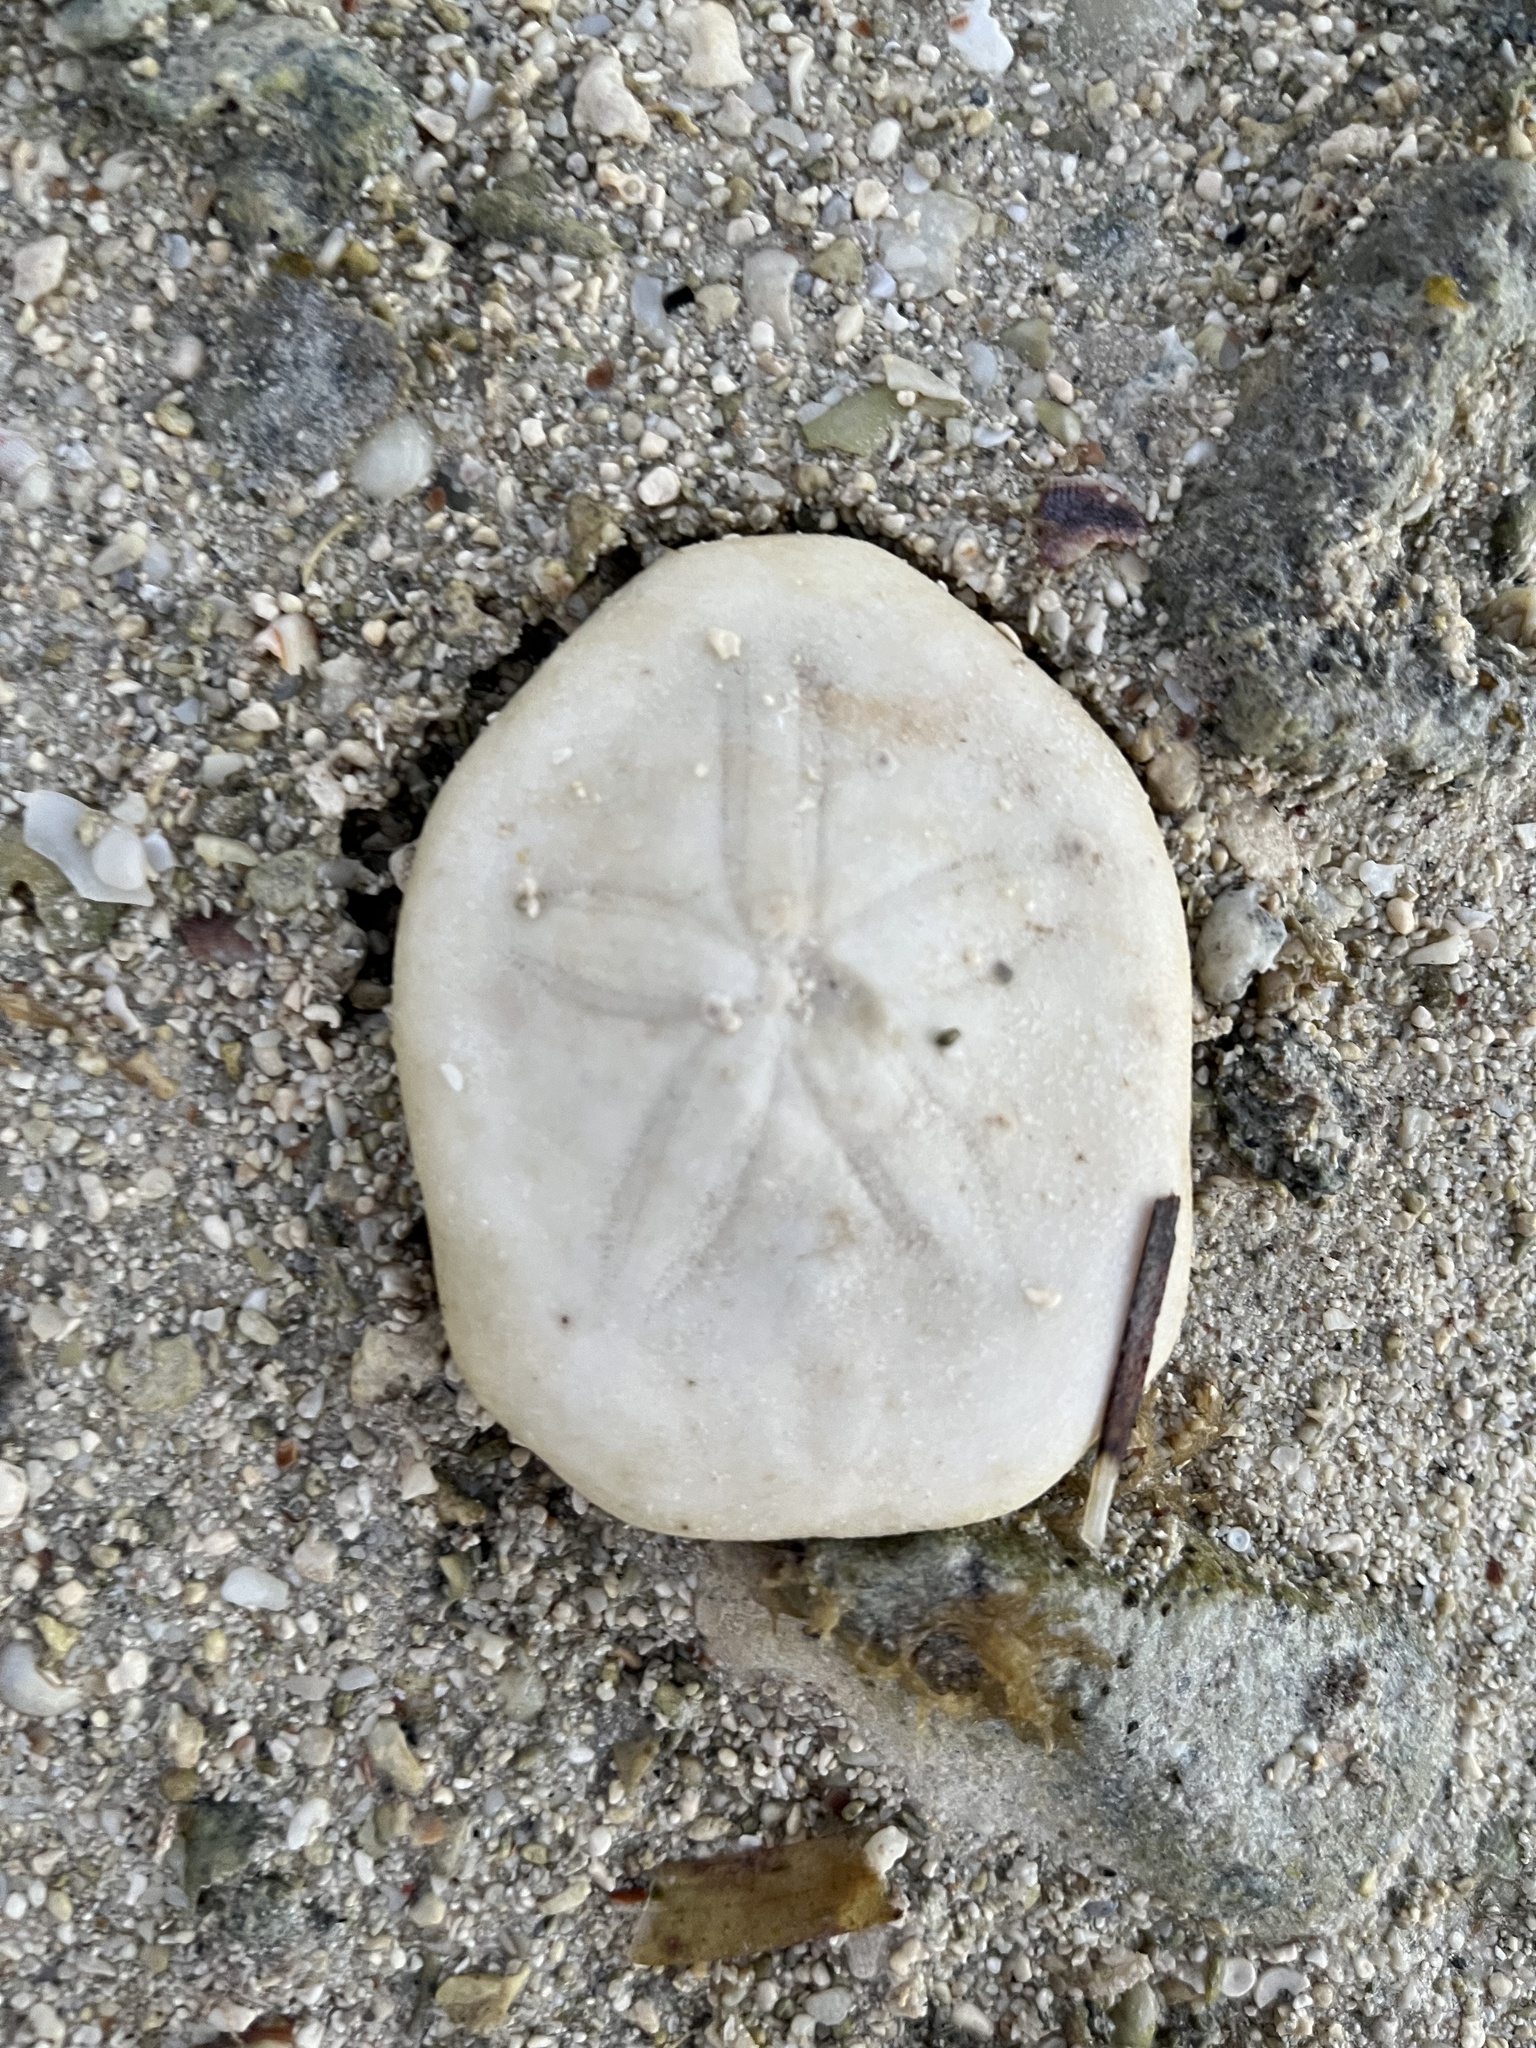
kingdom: Animalia
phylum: Echinodermata
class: Echinoidea
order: Echinolampadacea
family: Laganidae
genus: Jacksonaster
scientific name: Jacksonaster depressus
